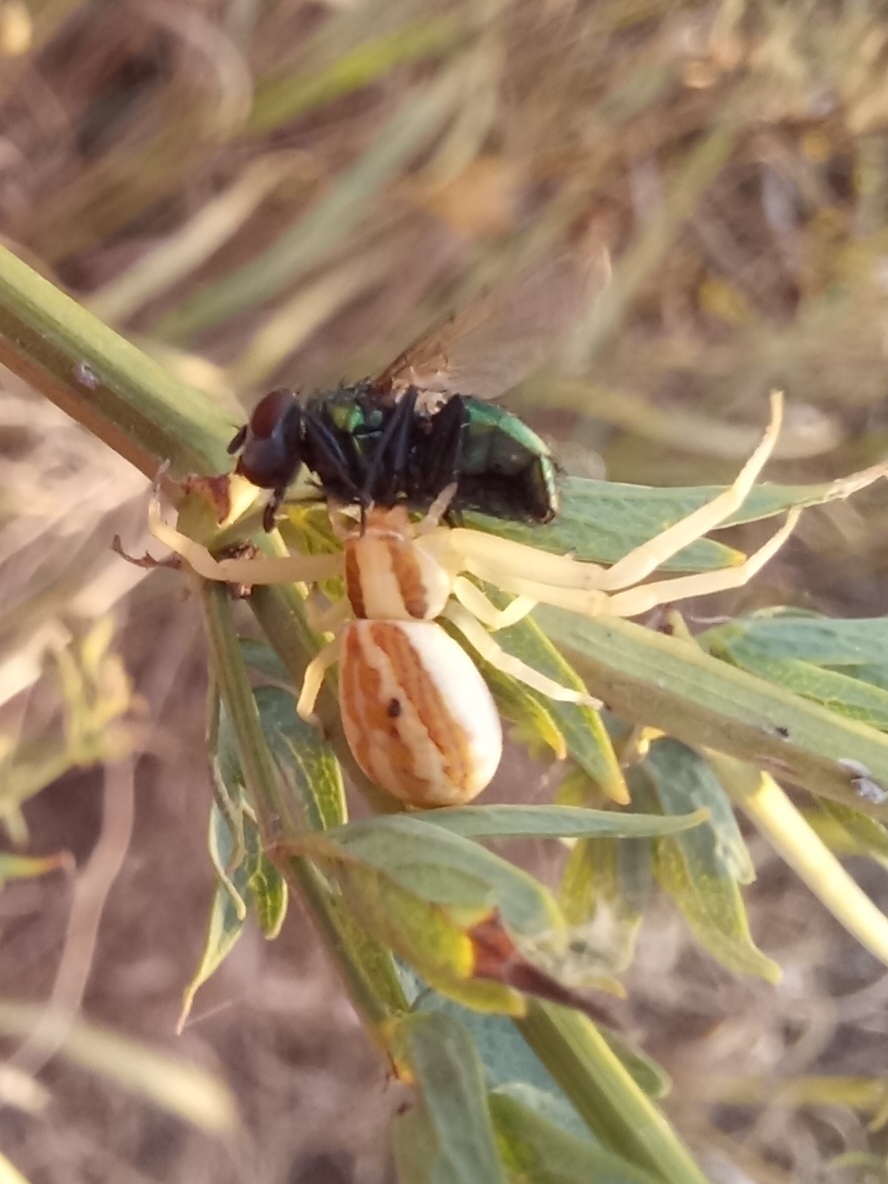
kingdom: Animalia
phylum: Arthropoda
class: Arachnida
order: Araneae
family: Thomisidae
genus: Runcinia
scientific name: Runcinia grammica
